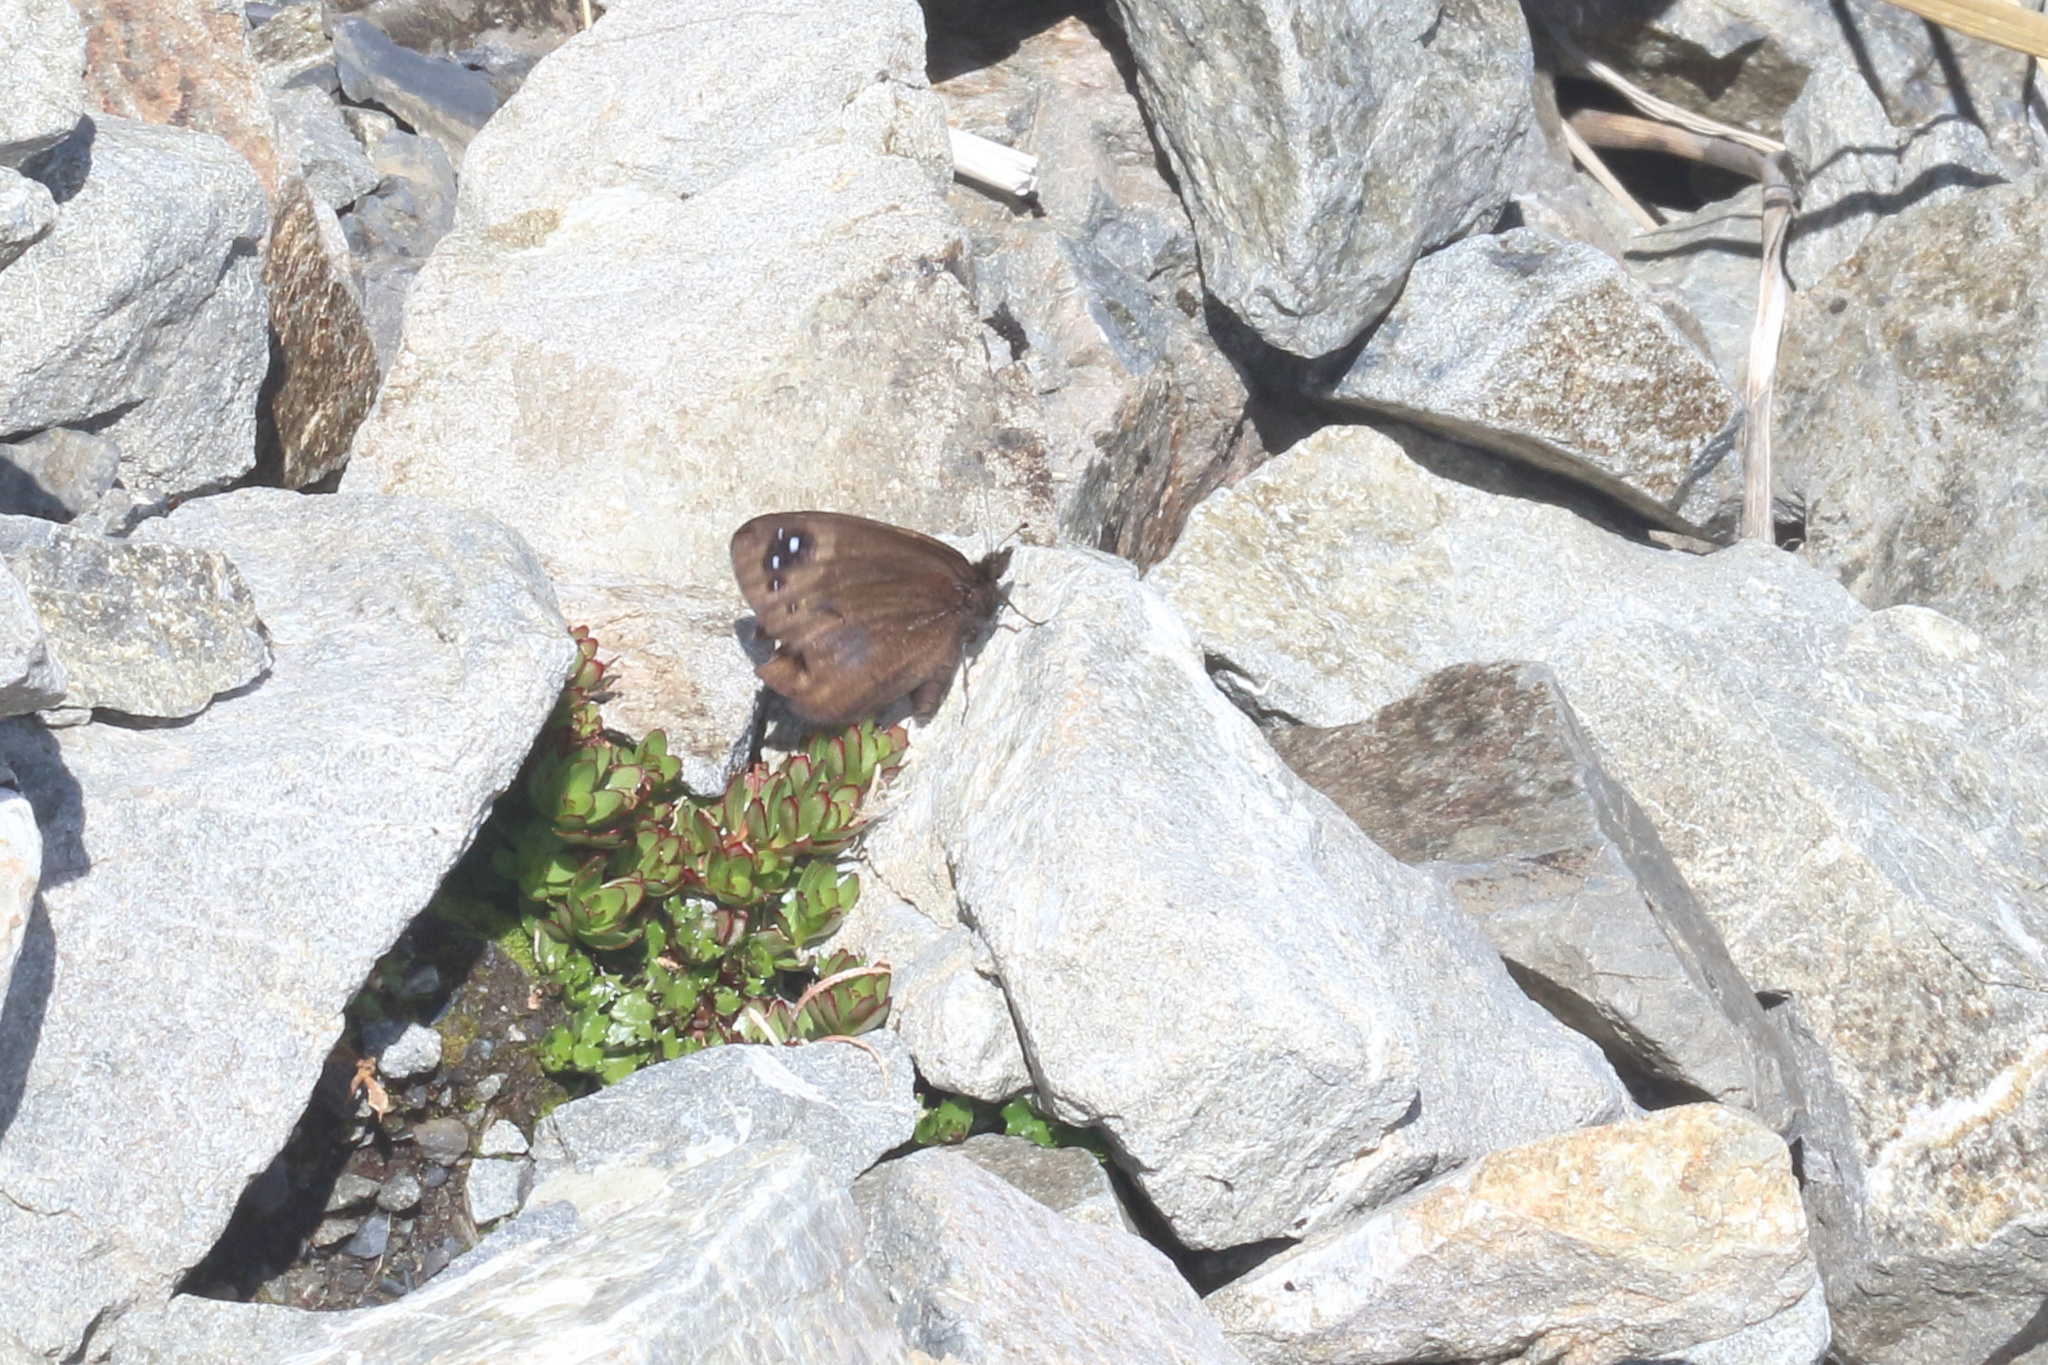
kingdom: Animalia
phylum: Arthropoda
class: Insecta
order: Lepidoptera
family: Nymphalidae
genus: Erebia
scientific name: Erebia Percnodaimon merula
